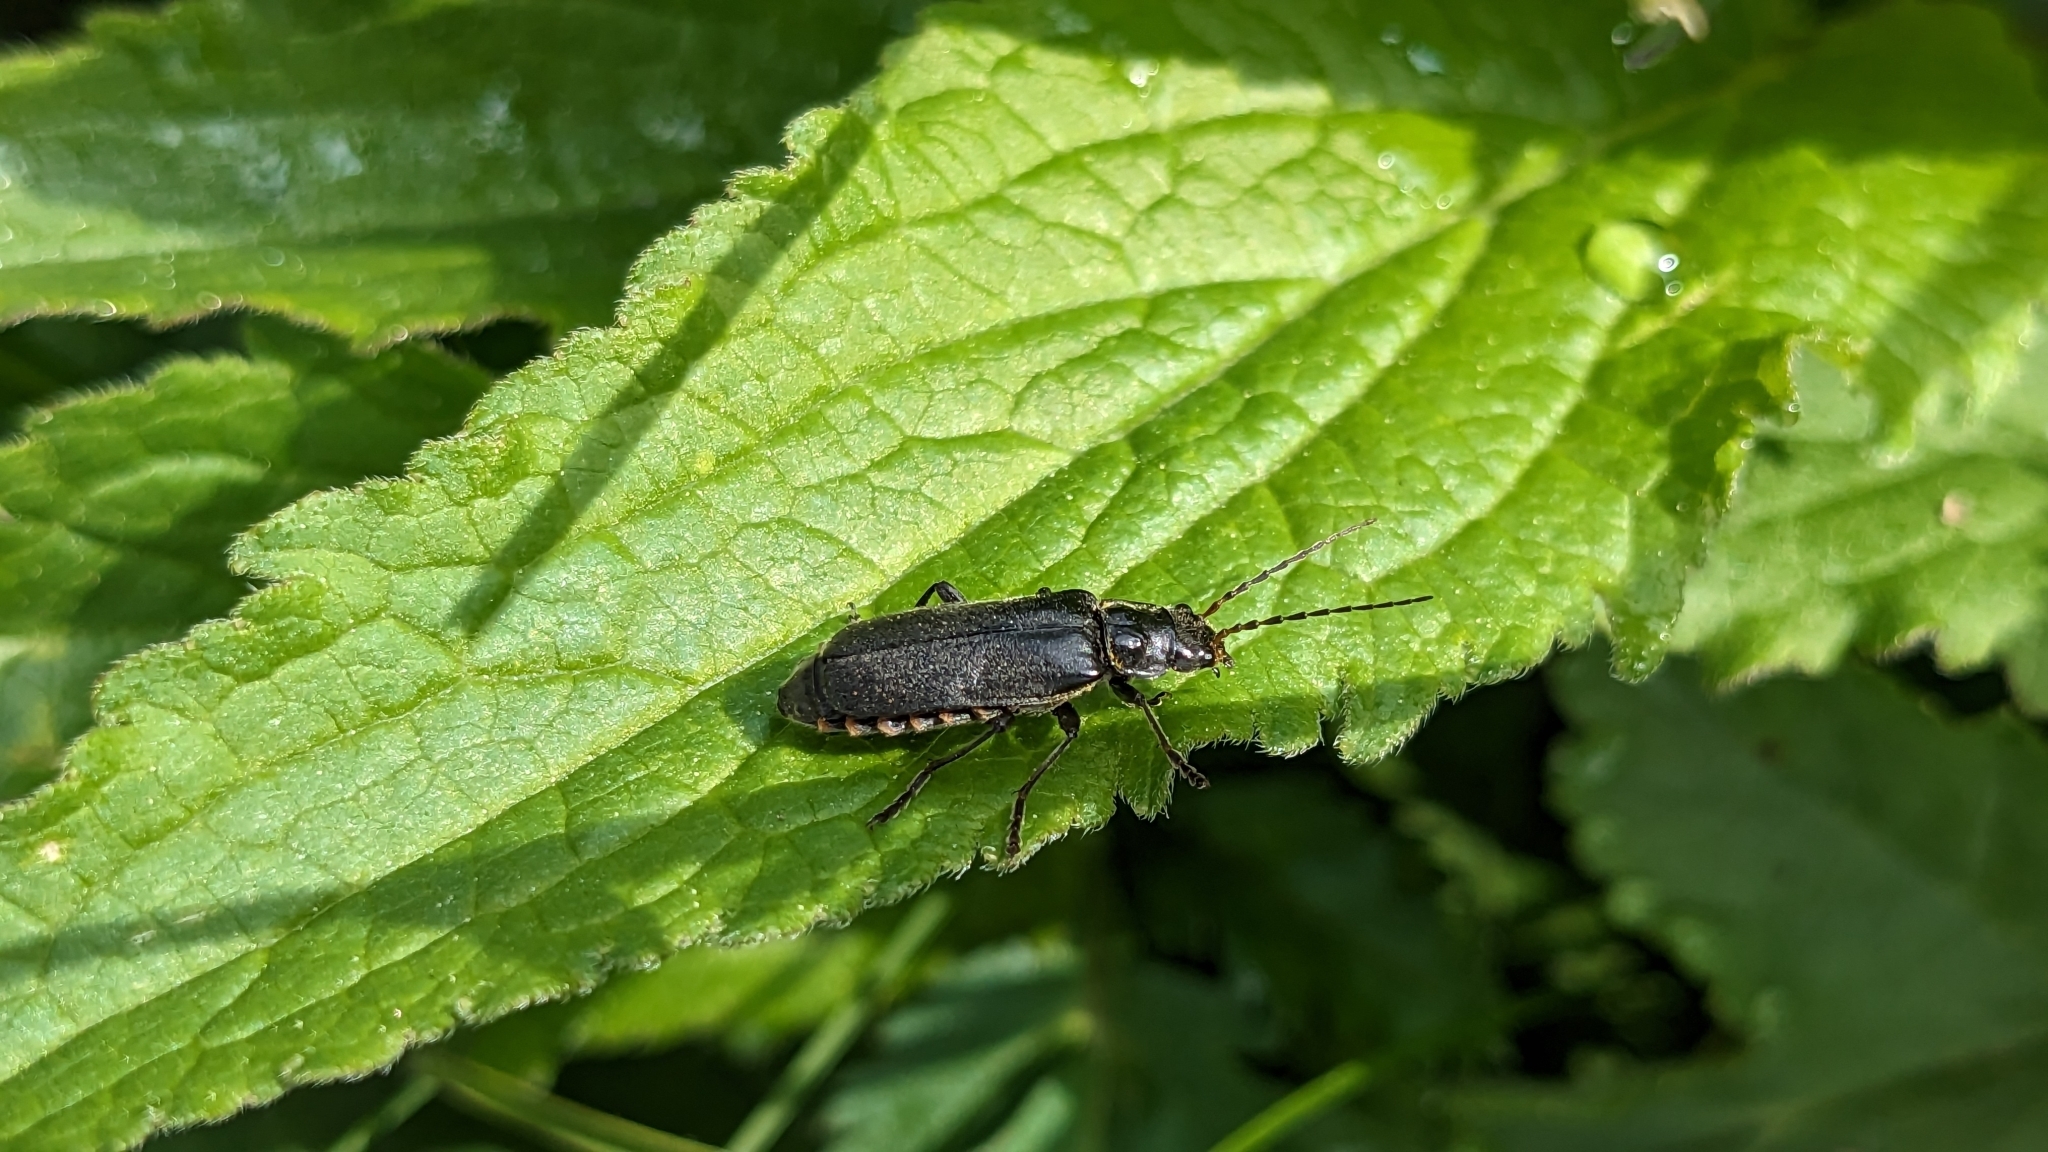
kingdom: Animalia
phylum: Arthropoda
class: Insecta
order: Coleoptera
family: Cantharidae
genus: Cantharis
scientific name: Cantharis tristis
